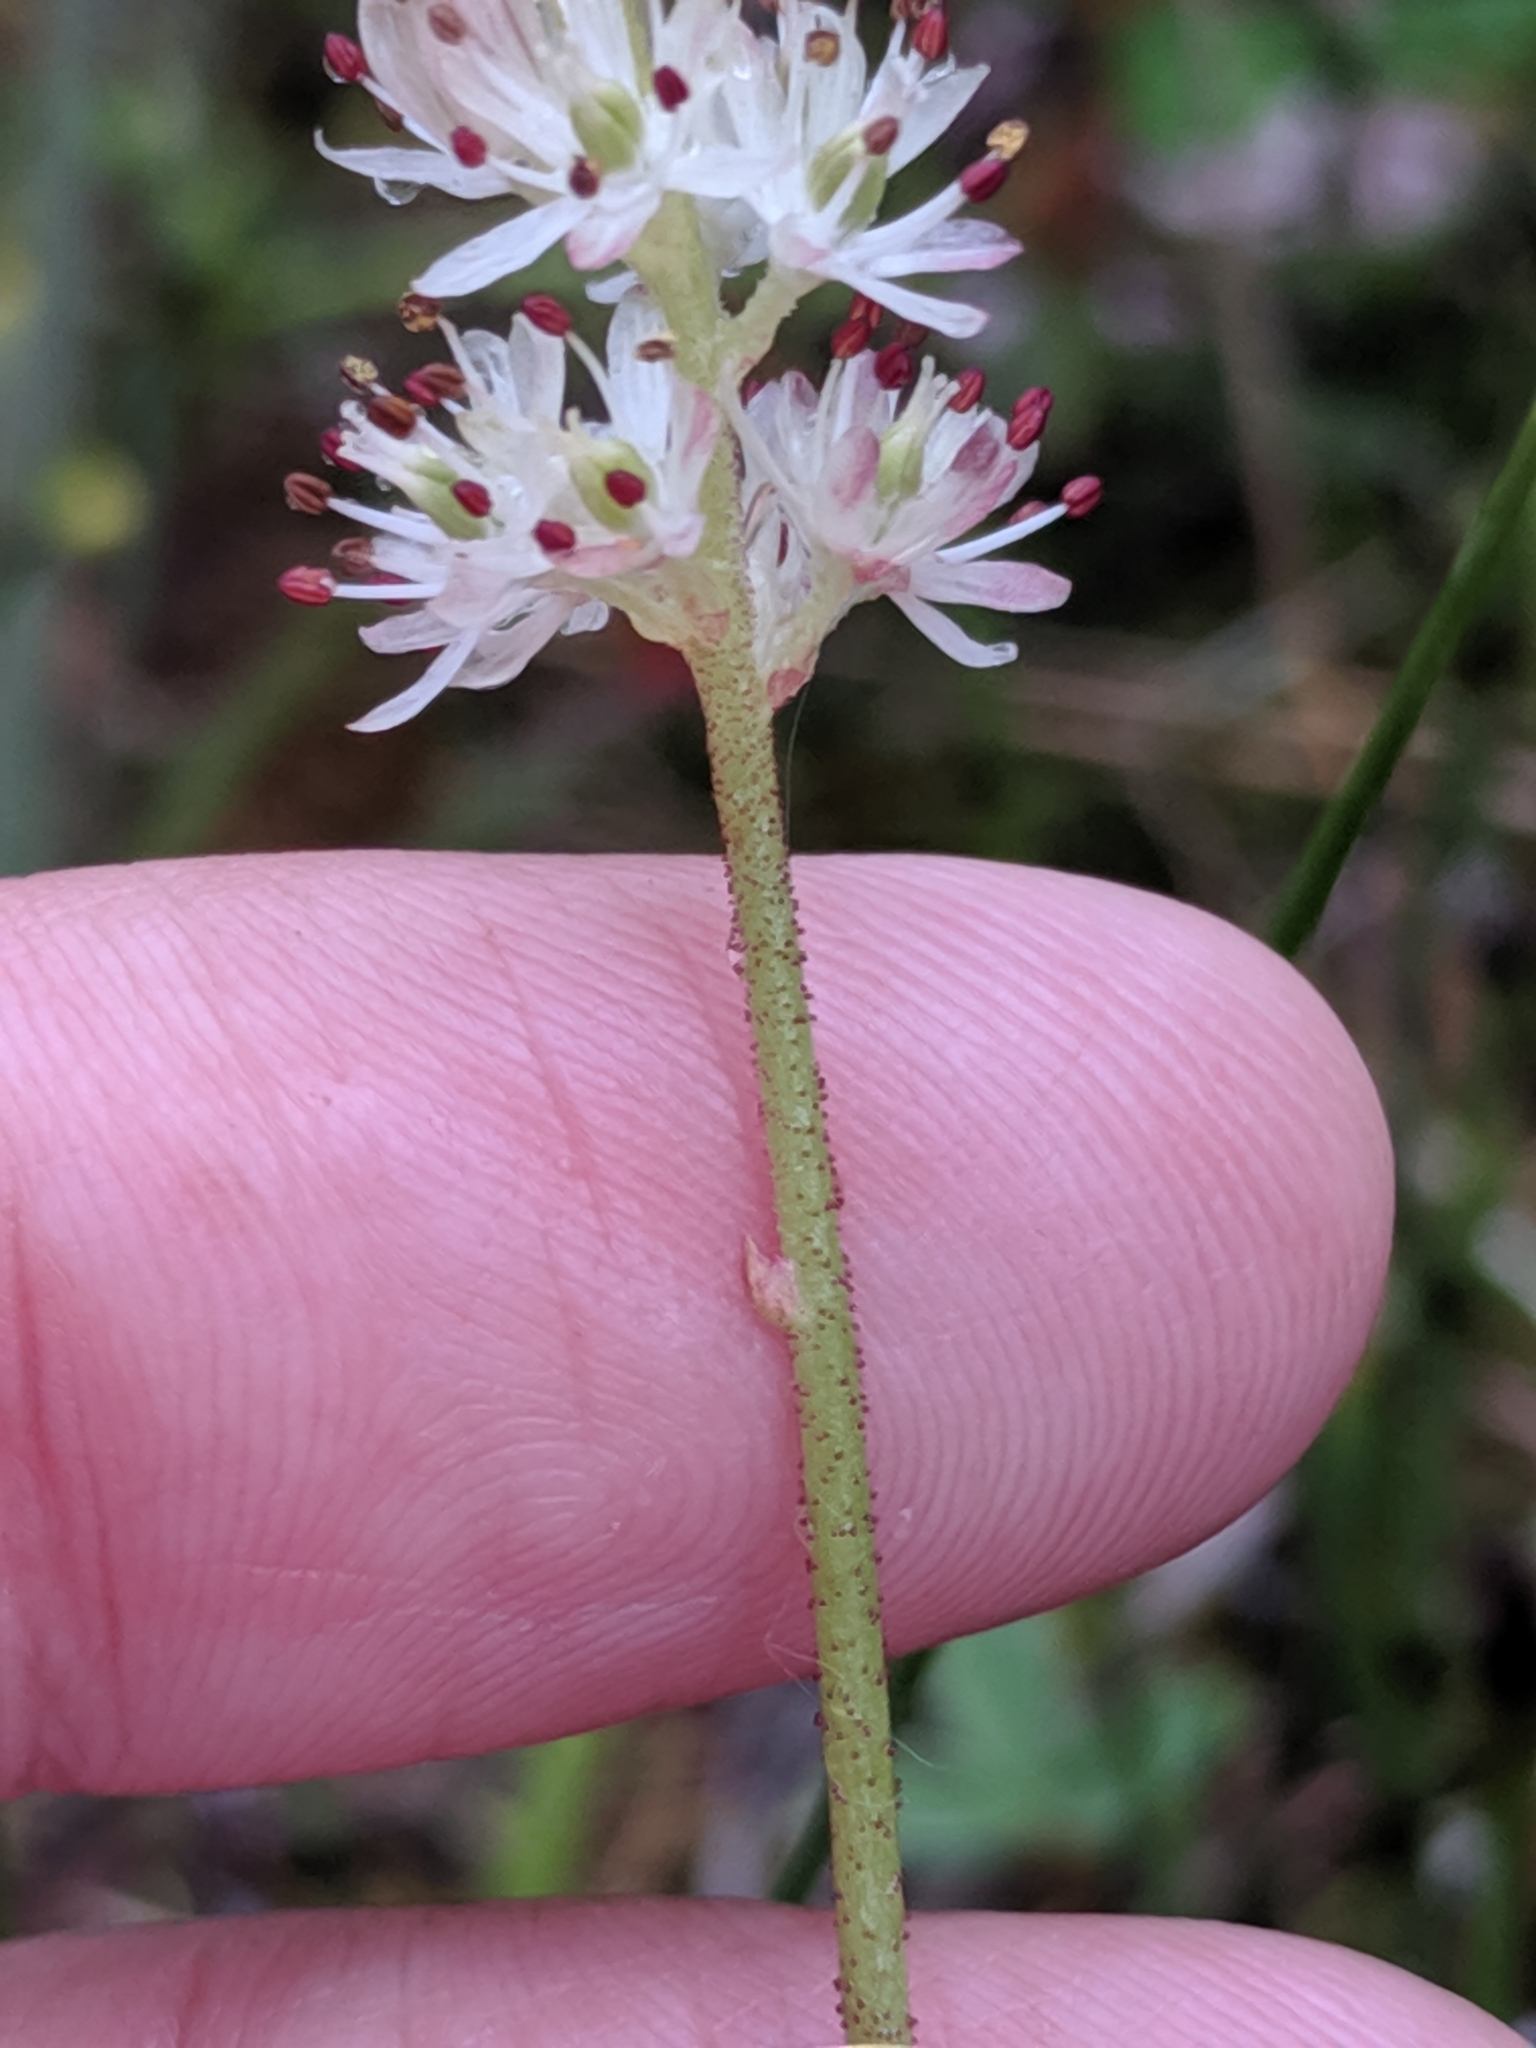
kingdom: Plantae
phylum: Tracheophyta
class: Liliopsida
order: Alismatales
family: Tofieldiaceae
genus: Triantha
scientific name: Triantha glutinosa
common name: Glutinous tofieldia
